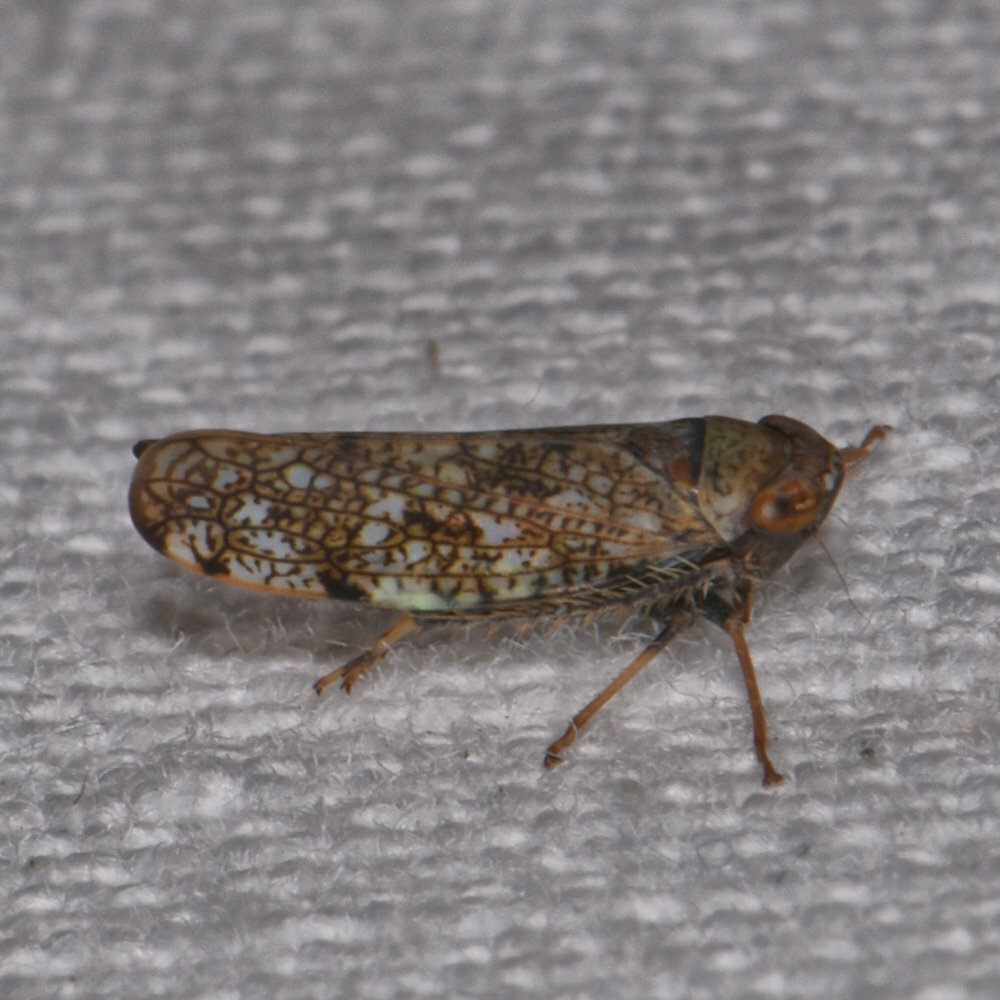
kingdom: Animalia
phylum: Arthropoda
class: Insecta
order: Hemiptera
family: Cicadellidae
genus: Orientus
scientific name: Orientus ishidae
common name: Japanese leafhopper
